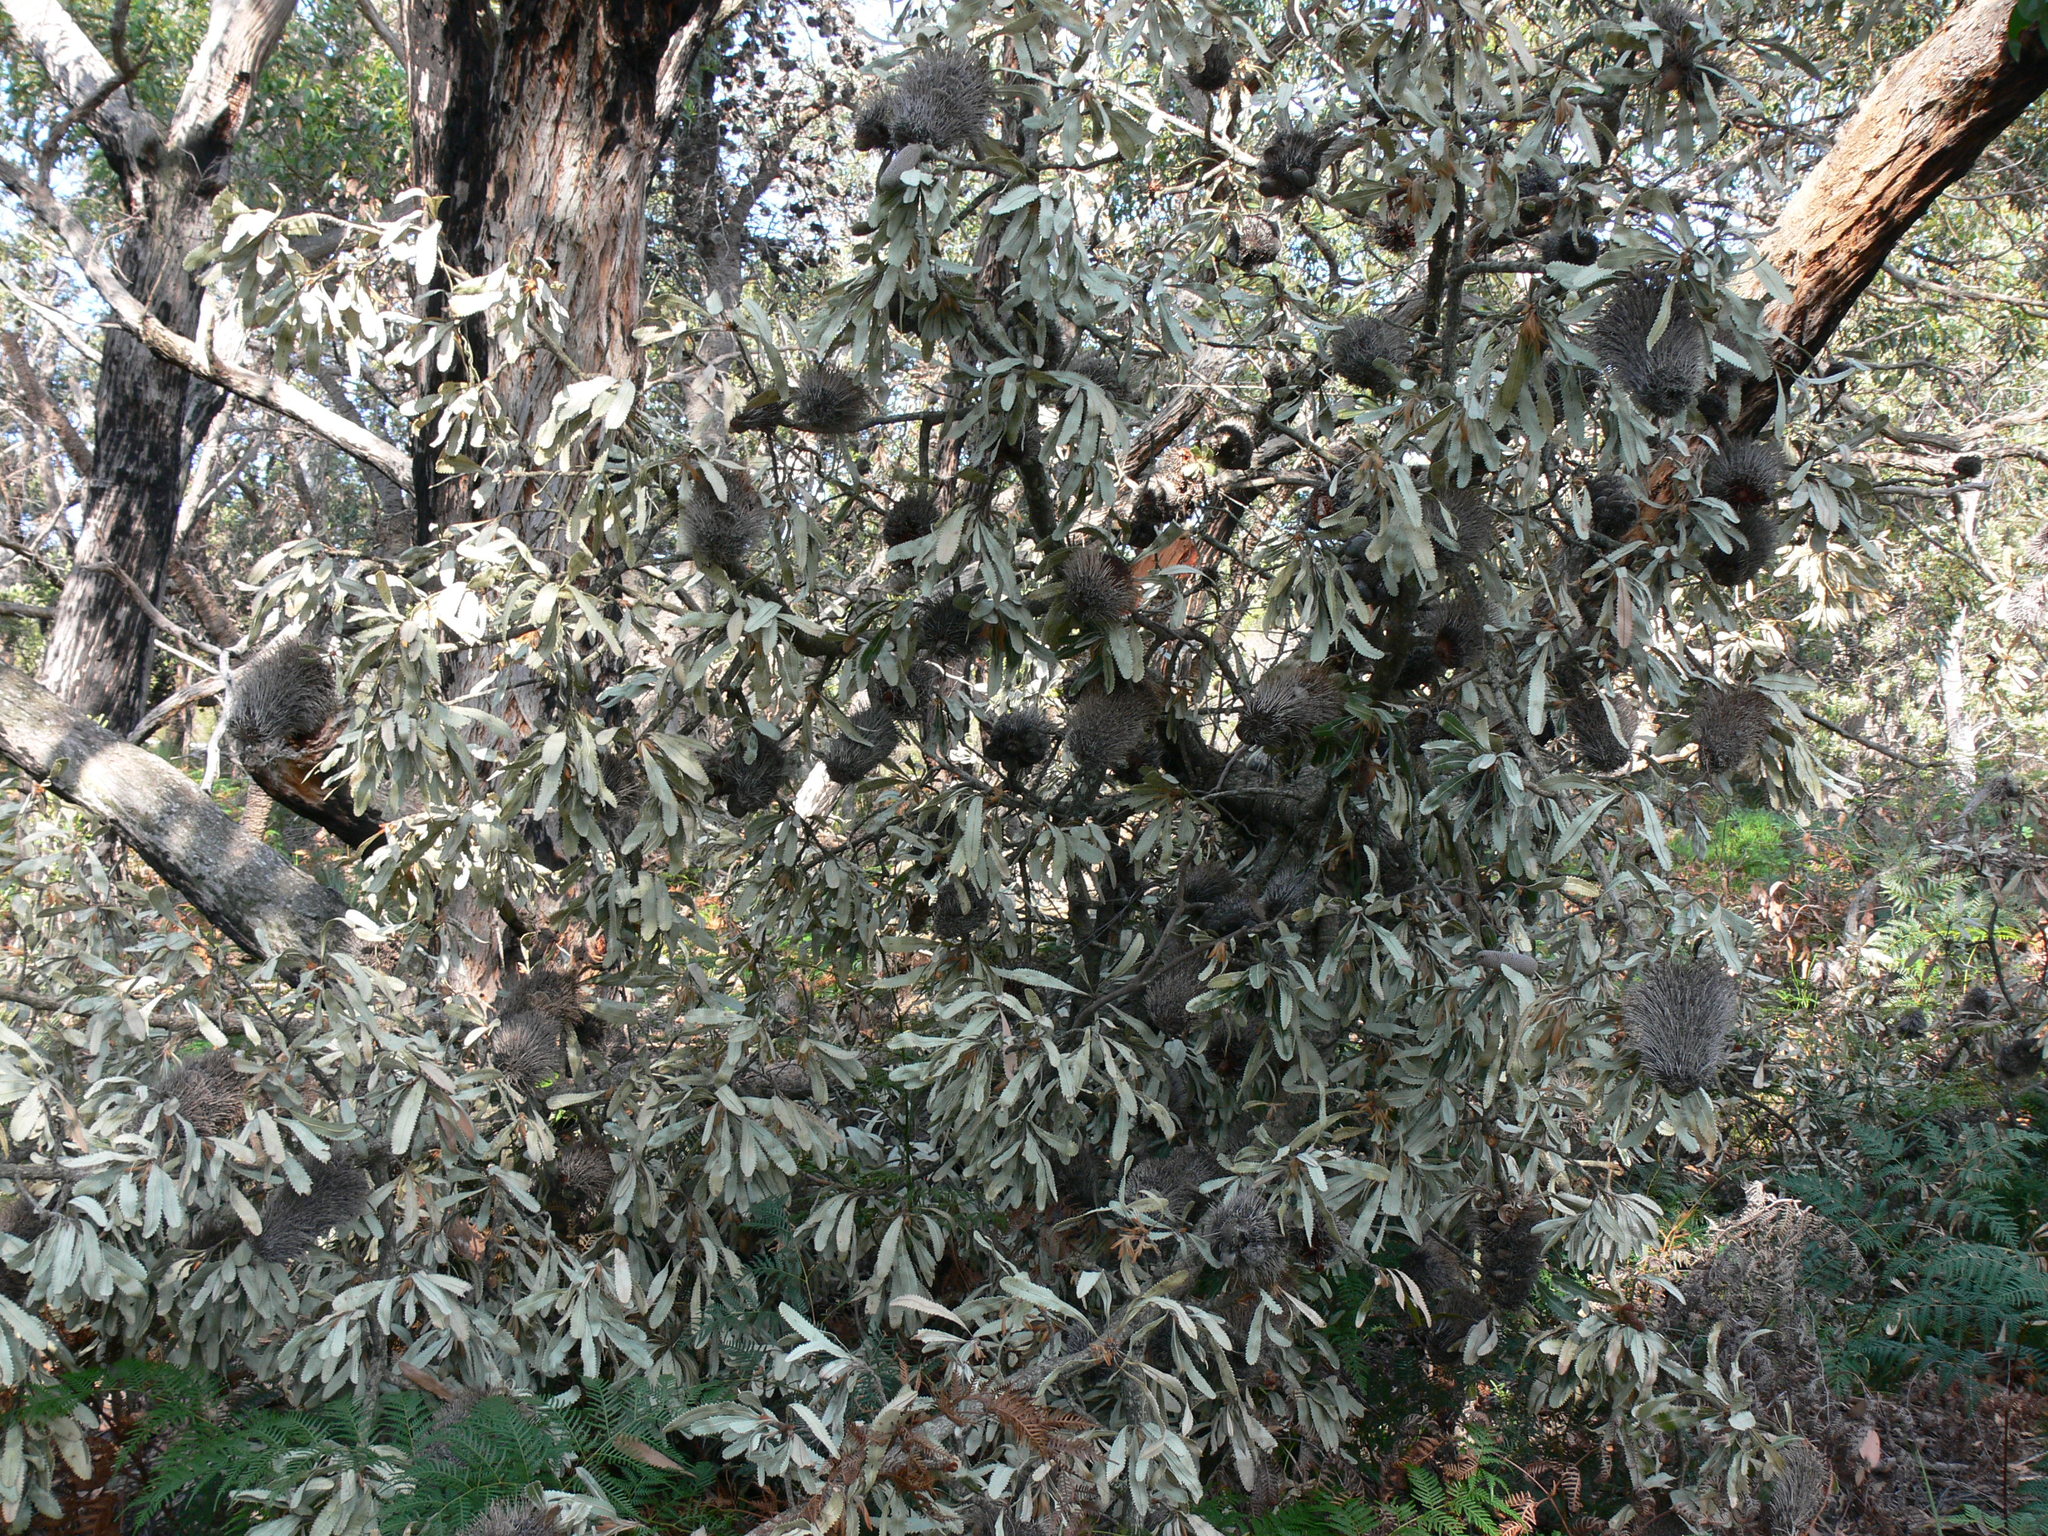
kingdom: Plantae
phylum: Tracheophyta
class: Magnoliopsida
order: Proteales
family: Proteaceae
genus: Banksia
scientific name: Banksia integrifolia
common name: White-honeysuckle
